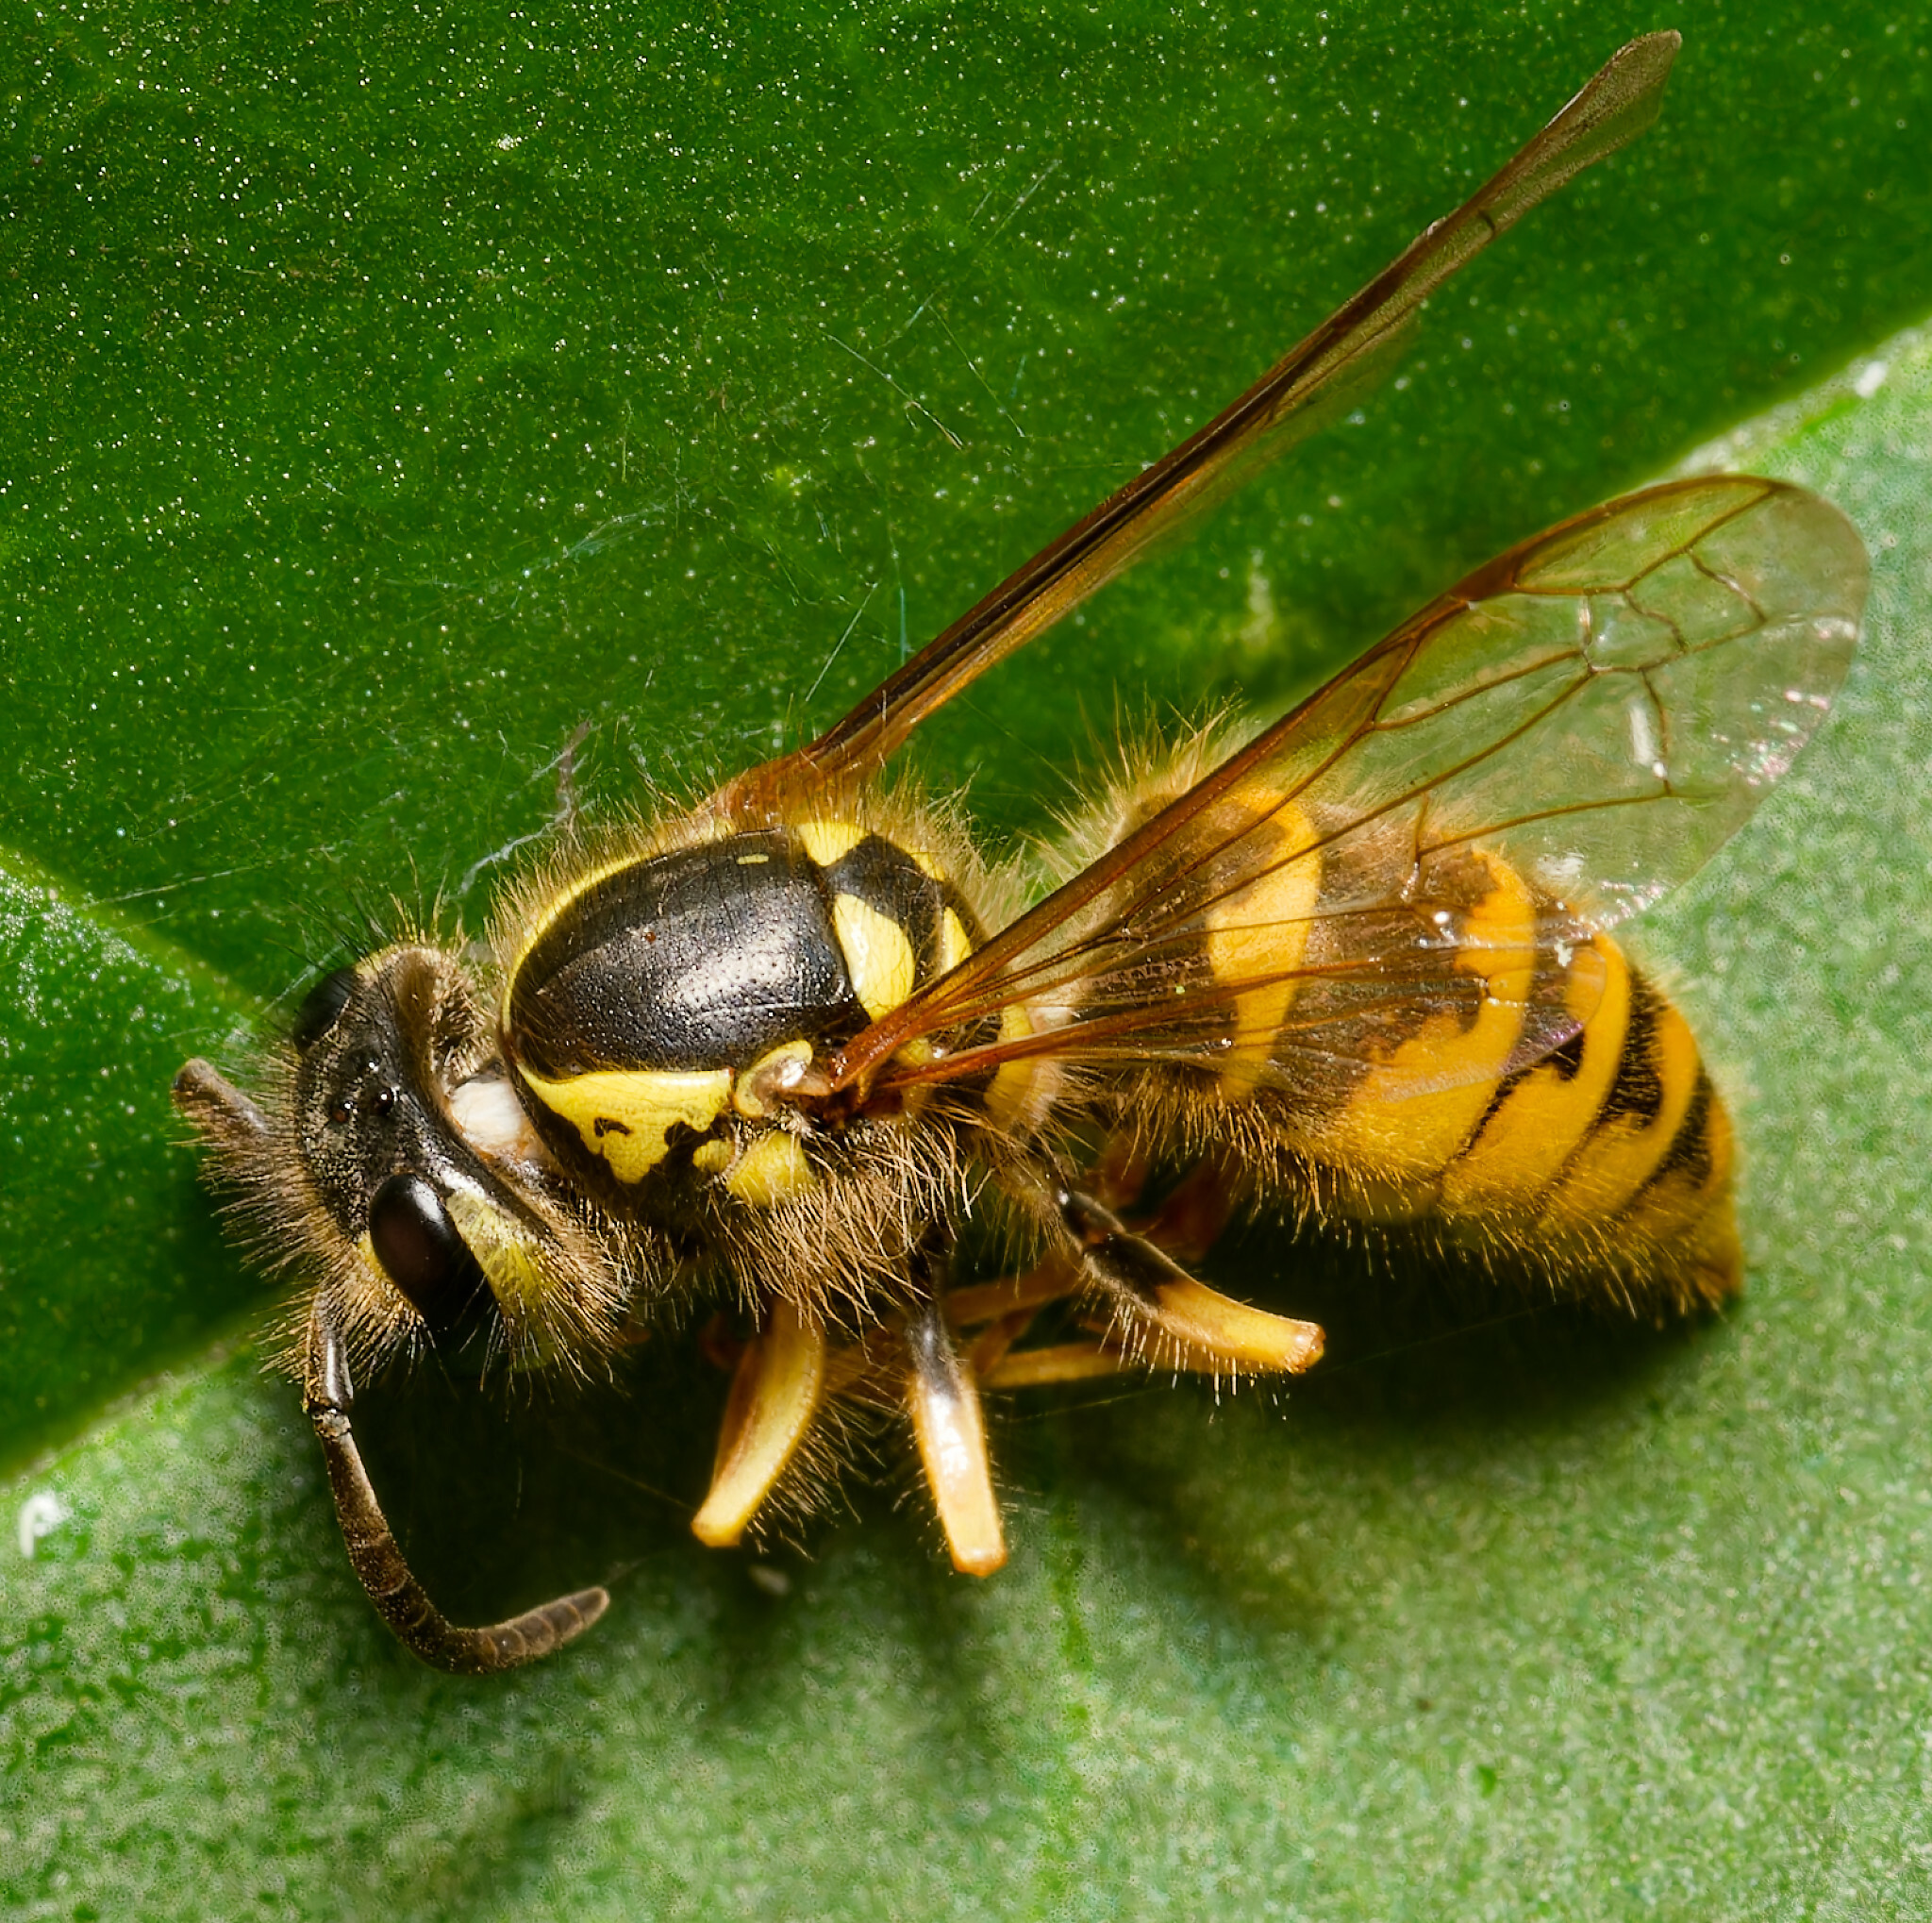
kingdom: Animalia
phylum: Arthropoda
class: Insecta
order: Hymenoptera
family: Vespidae
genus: Vespula
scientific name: Vespula flavopilosa
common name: Downy yellowjacket
